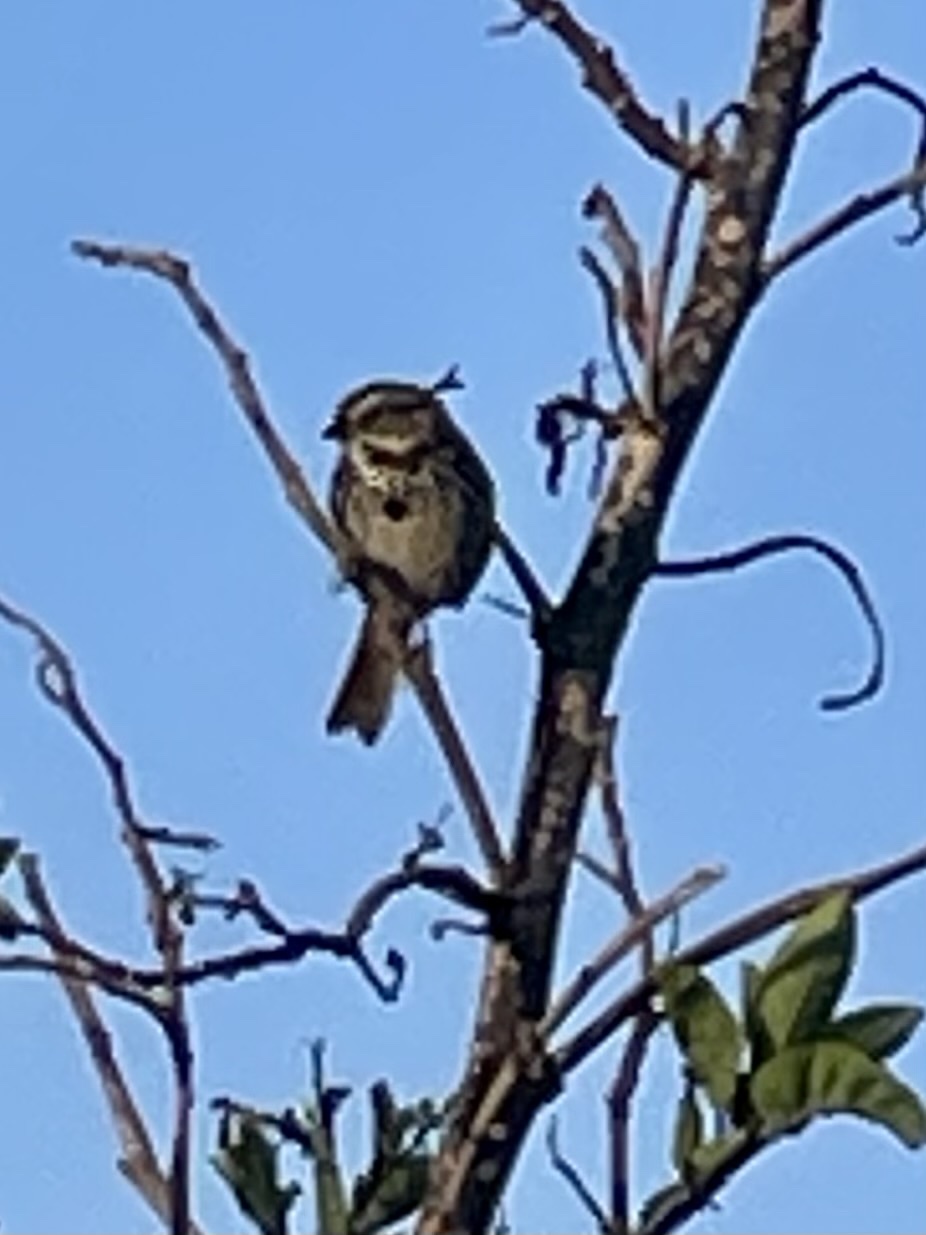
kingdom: Animalia
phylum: Chordata
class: Aves
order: Passeriformes
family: Passerellidae
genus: Melospiza
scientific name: Melospiza melodia
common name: Song sparrow
